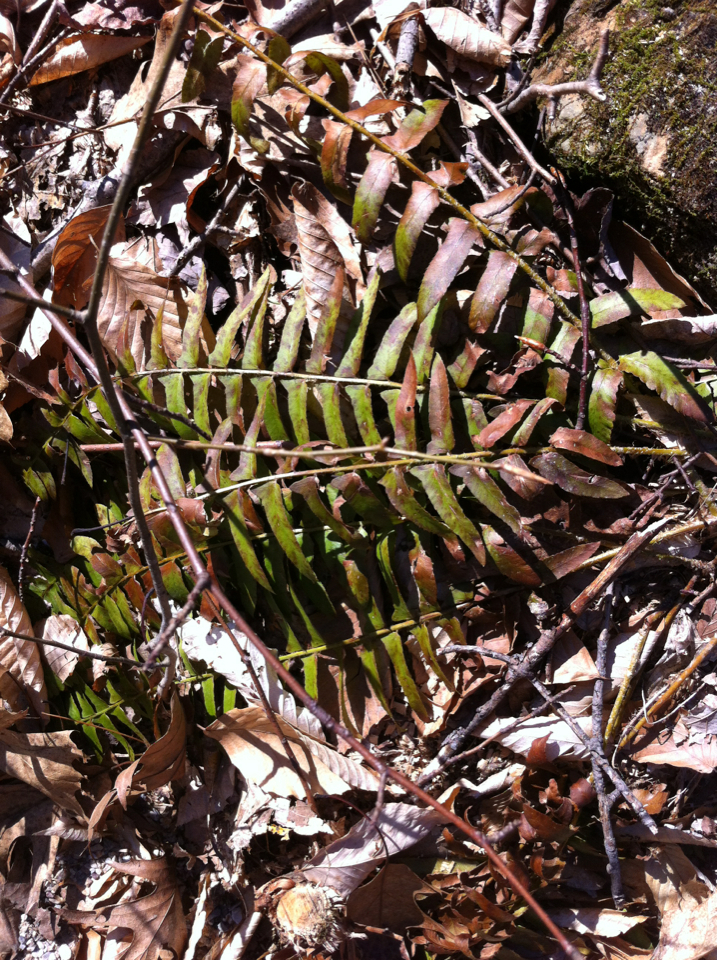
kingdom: Plantae
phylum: Tracheophyta
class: Polypodiopsida
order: Polypodiales
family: Dryopteridaceae
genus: Polystichum
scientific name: Polystichum acrostichoides
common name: Christmas fern
